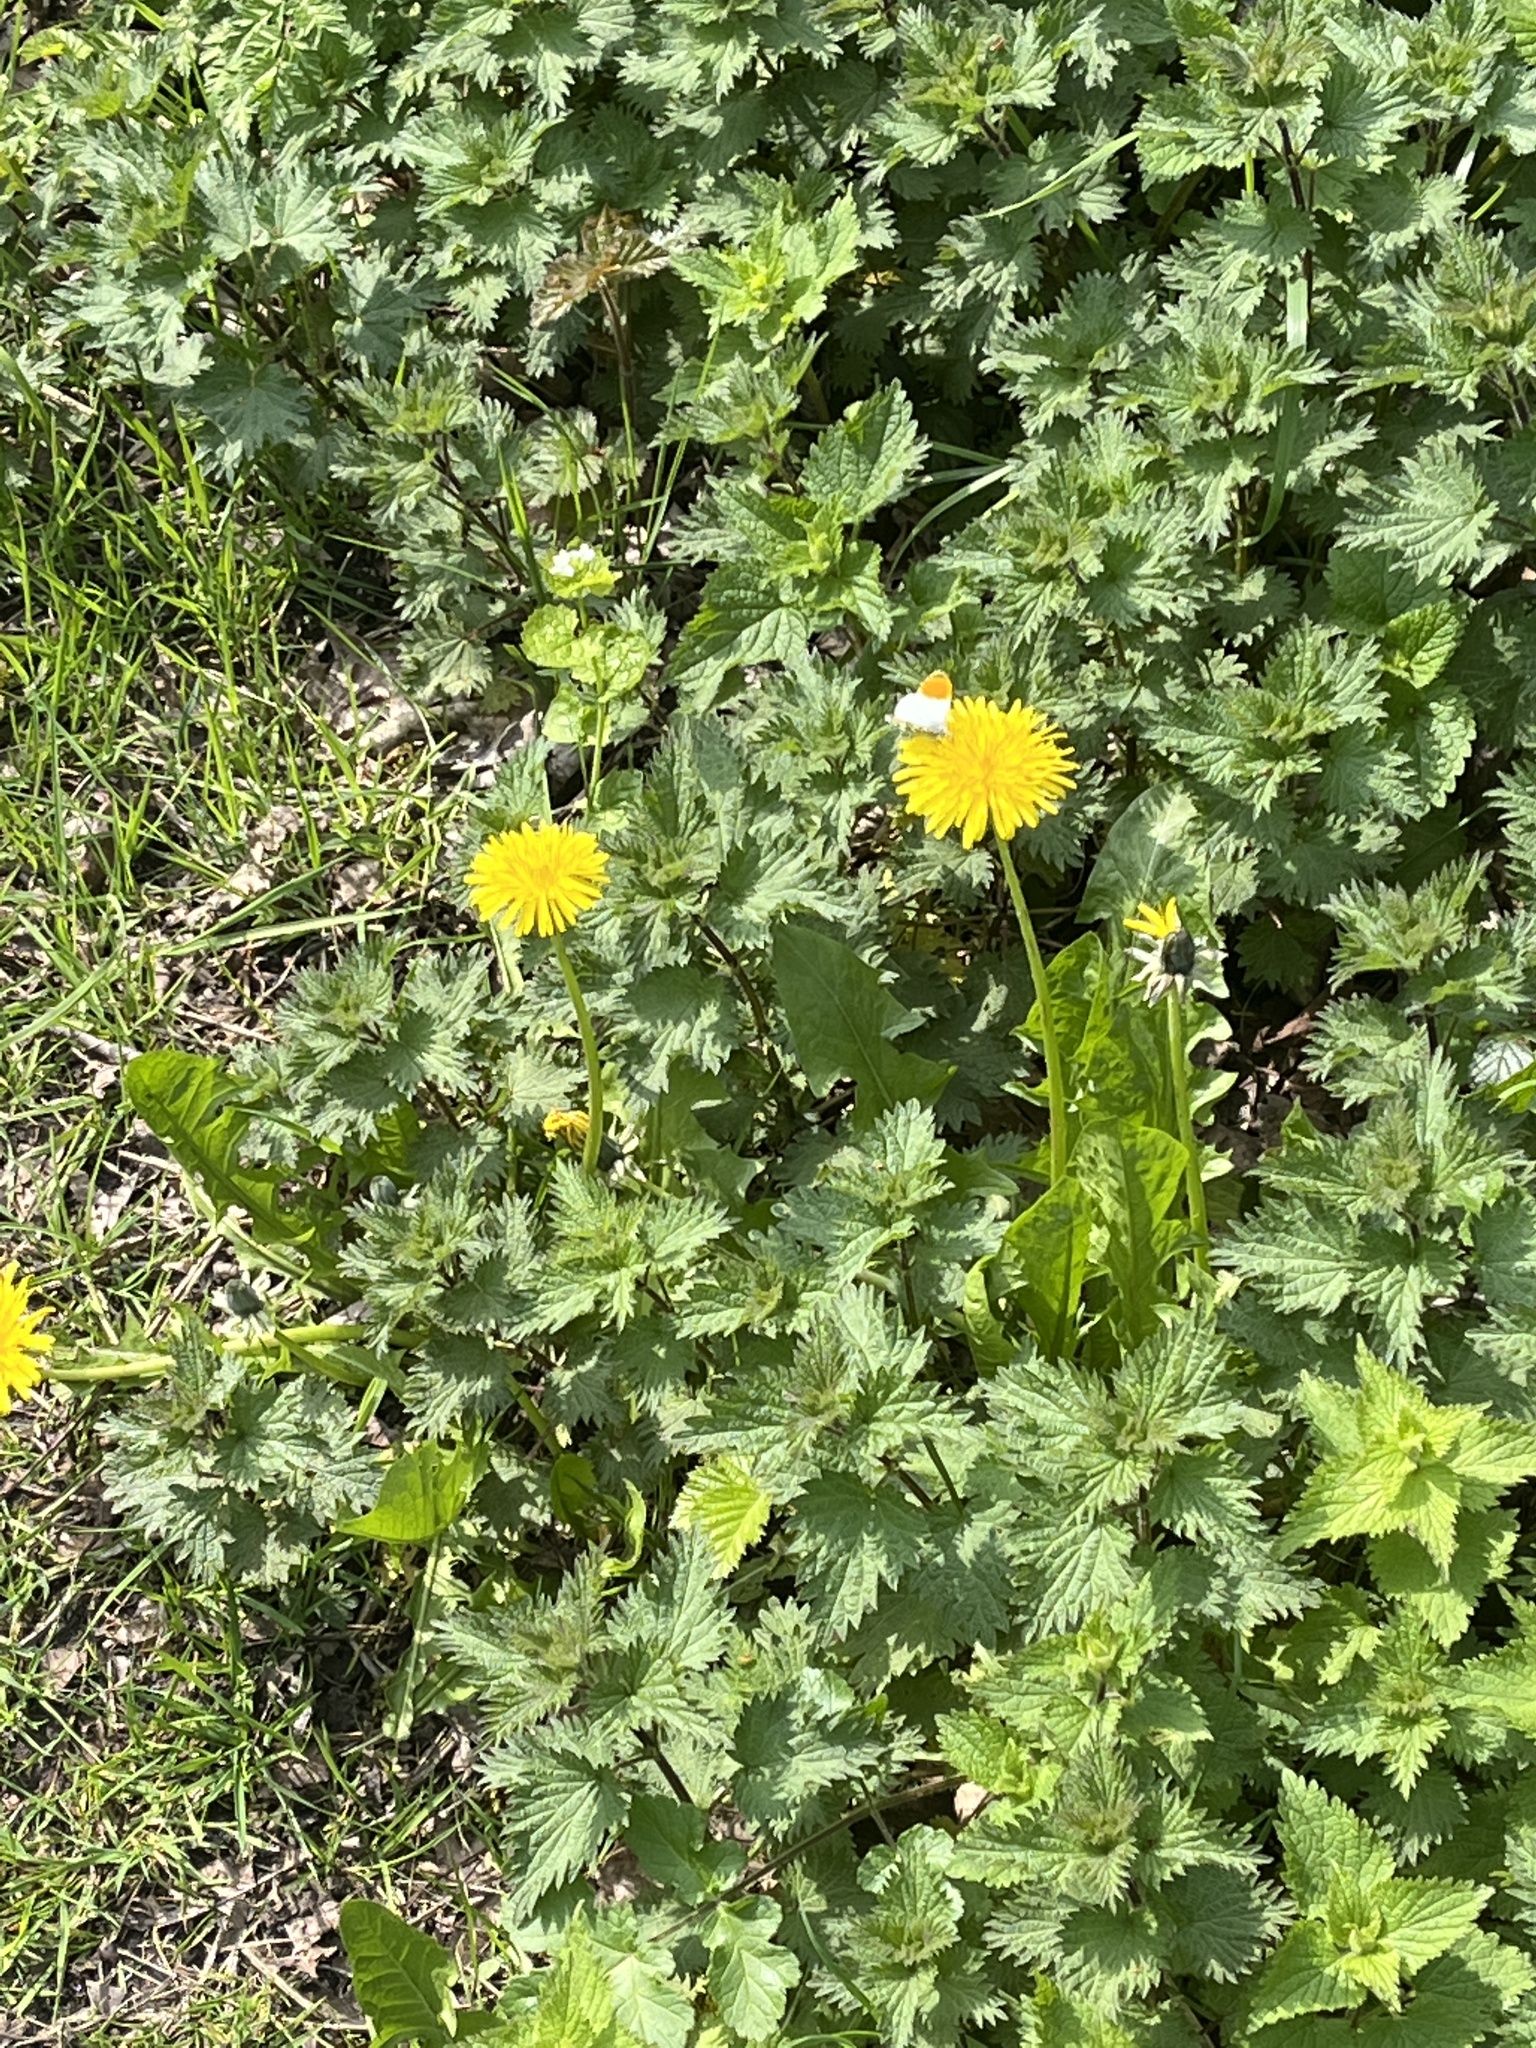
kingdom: Animalia
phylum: Arthropoda
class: Insecta
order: Lepidoptera
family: Pieridae
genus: Anthocharis
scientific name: Anthocharis cardamines
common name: Orange-tip
